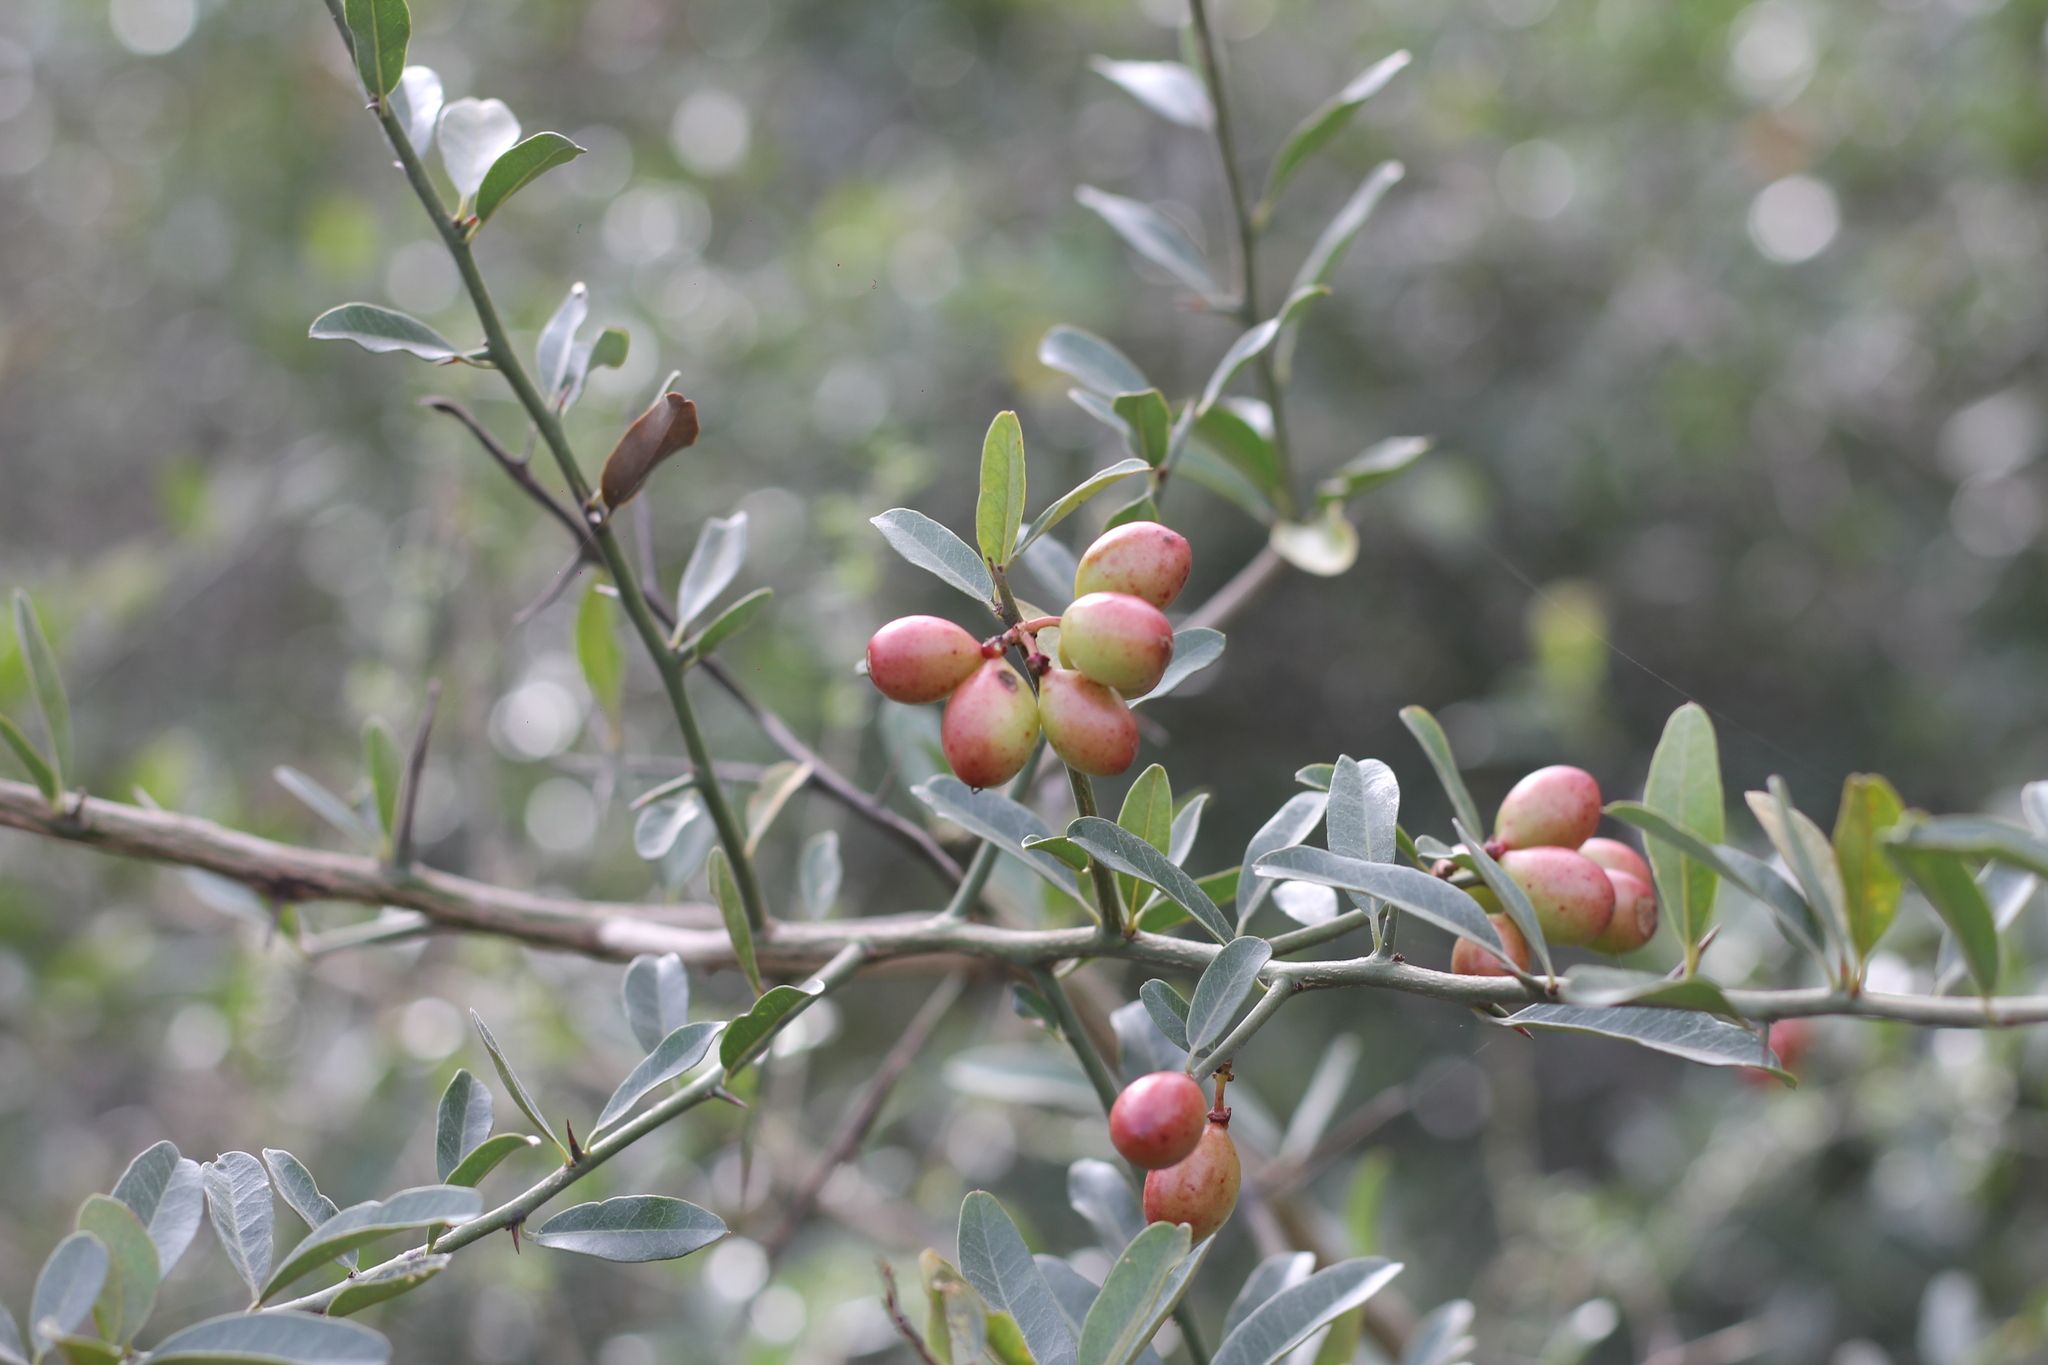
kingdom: Plantae
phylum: Tracheophyta
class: Magnoliopsida
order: Sapindales
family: Simaroubaceae
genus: Castela
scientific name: Castela coccinea
